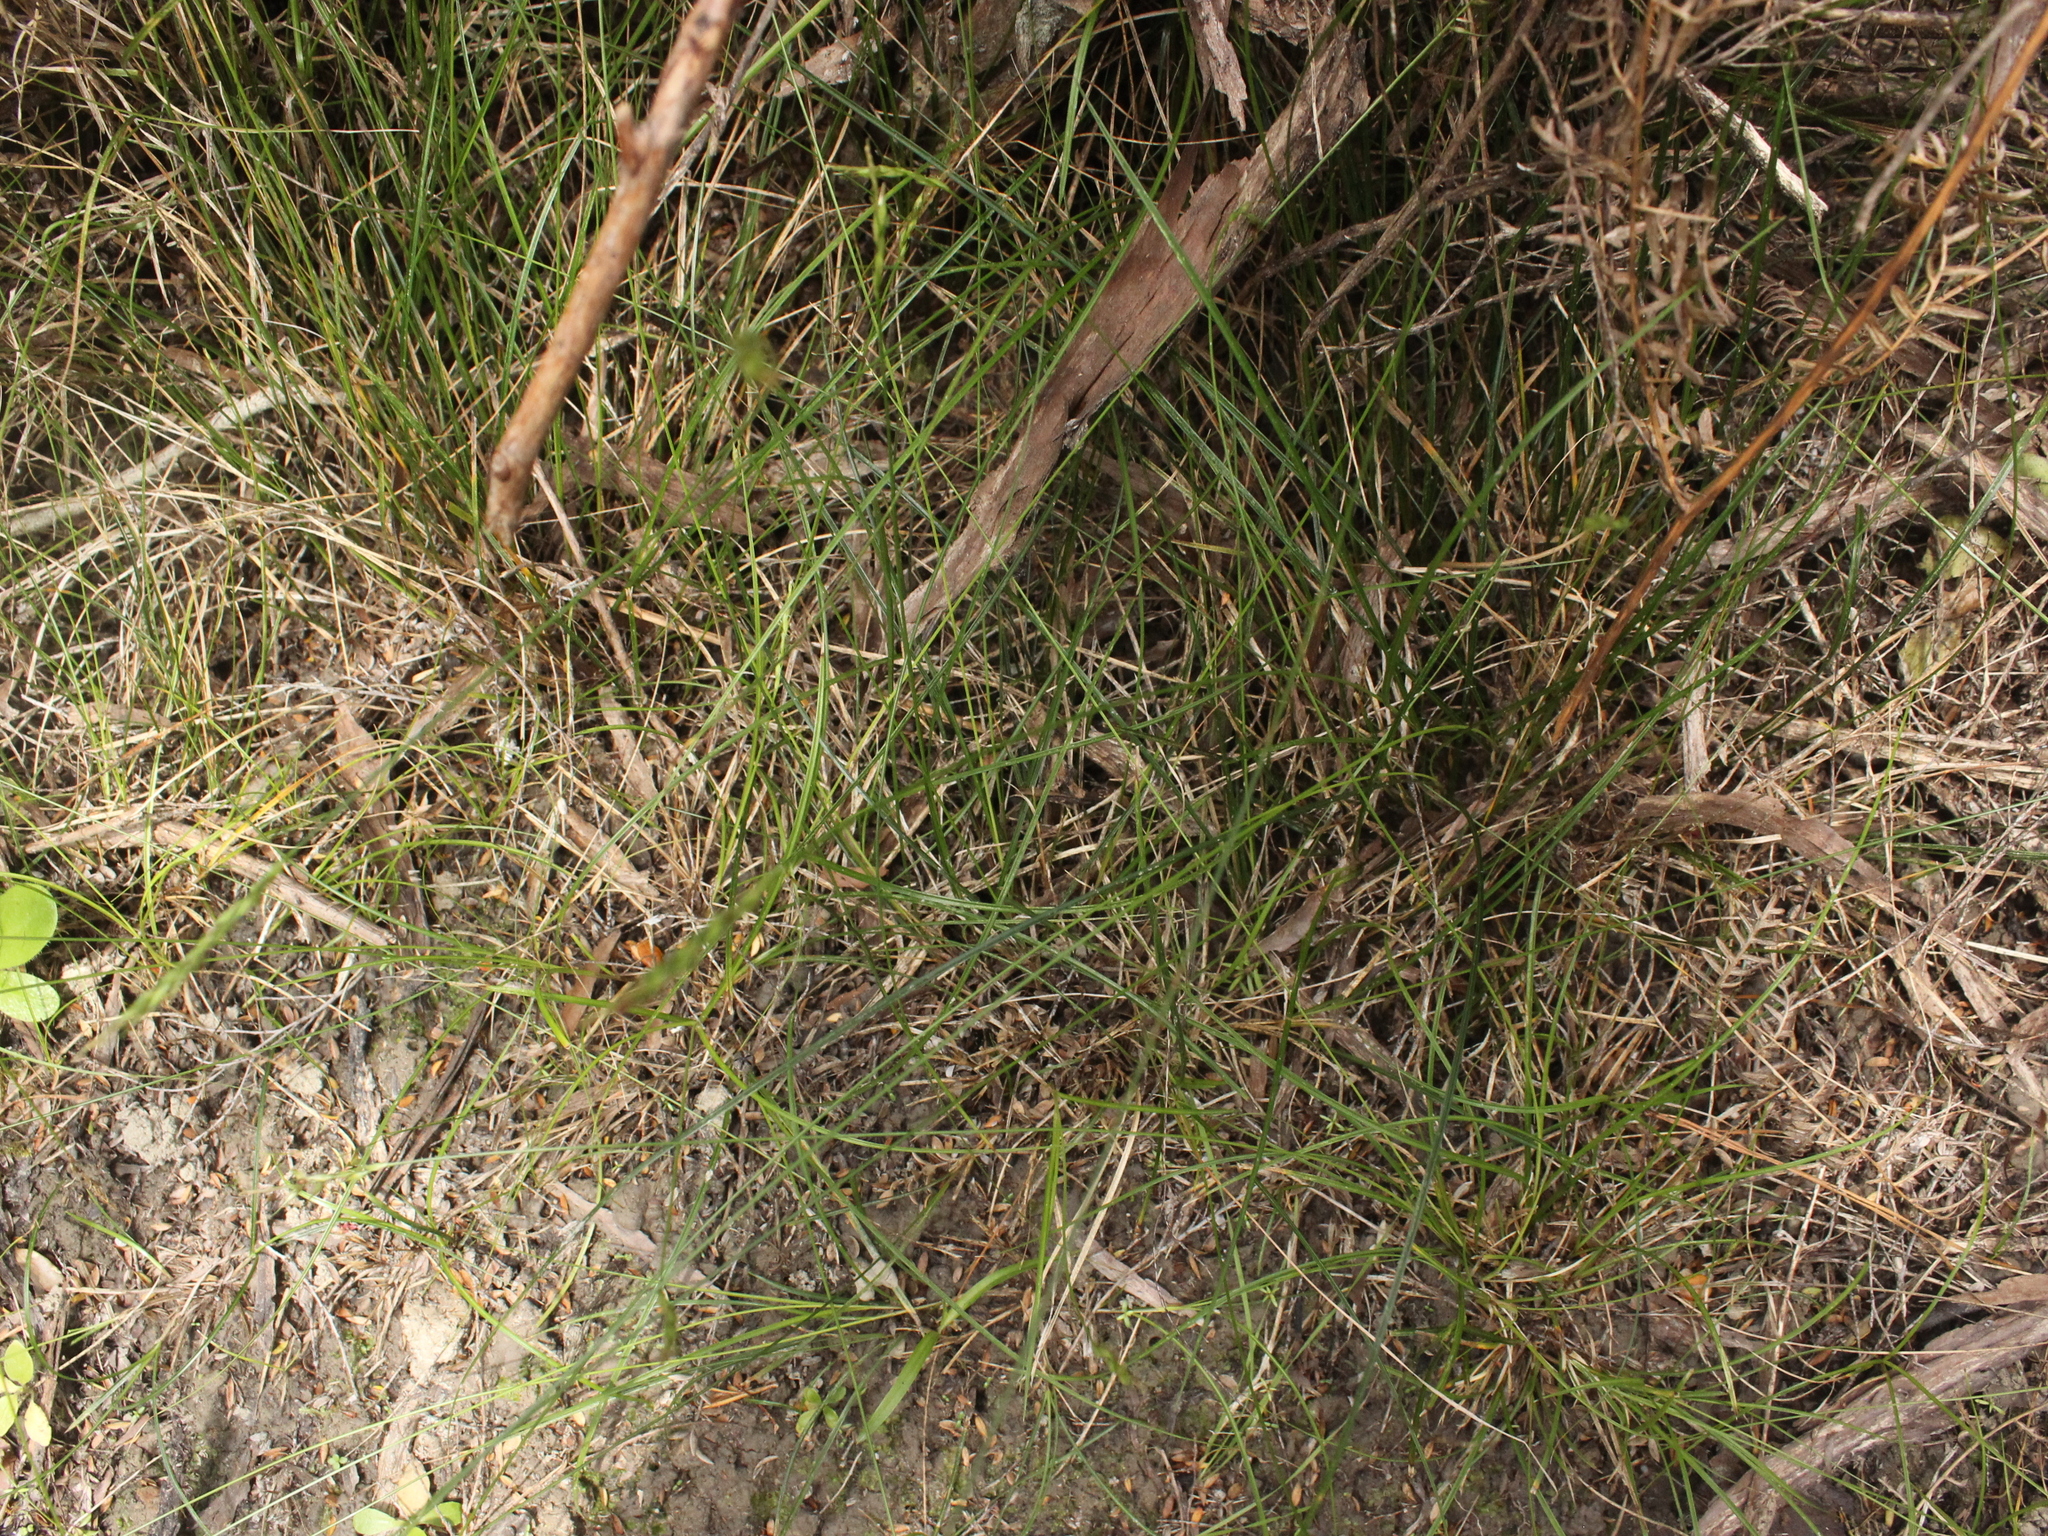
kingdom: Plantae
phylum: Tracheophyta
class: Liliopsida
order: Poales
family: Cyperaceae
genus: Carex
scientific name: Carex zotovii
